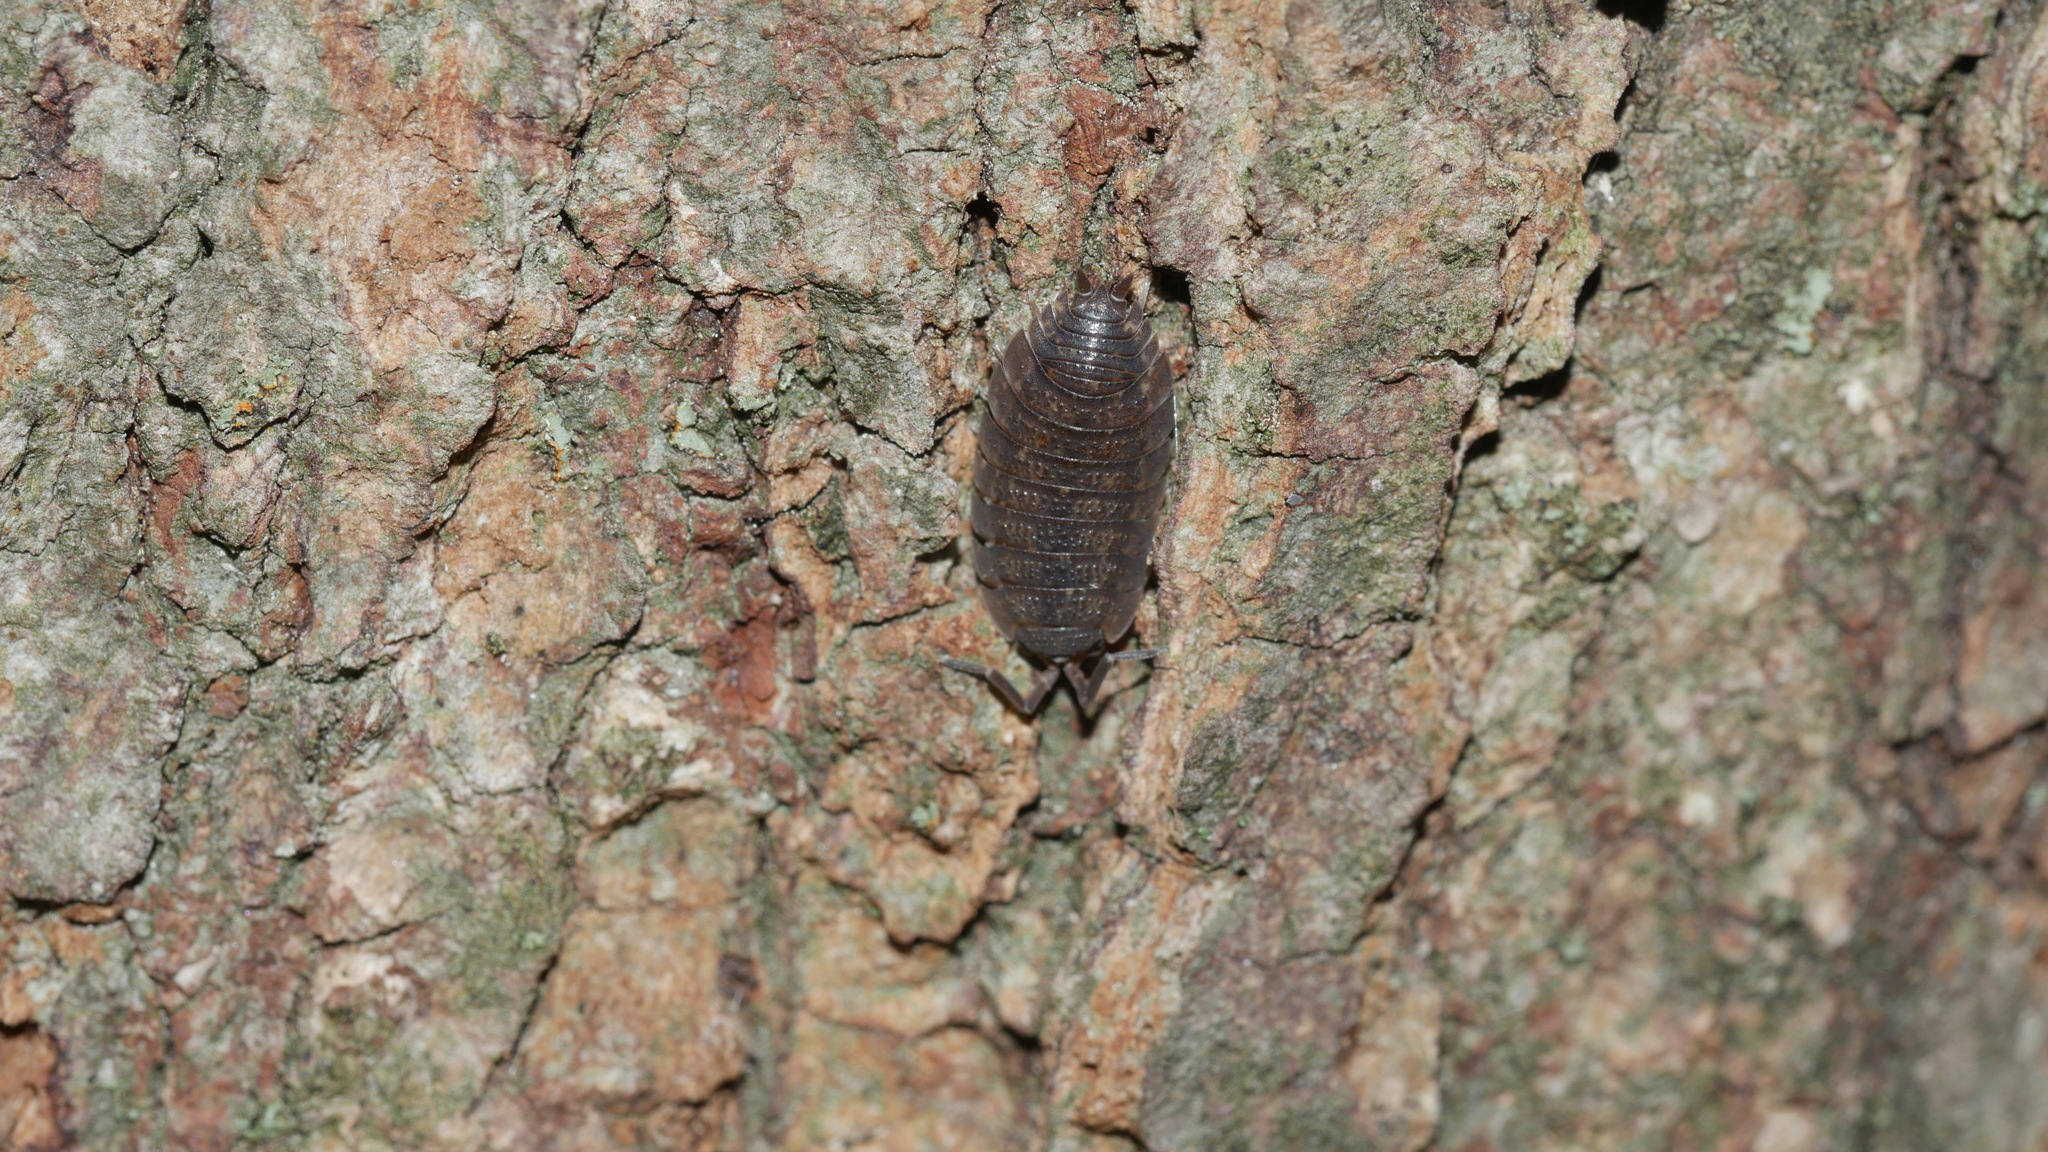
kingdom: Animalia
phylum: Arthropoda
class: Malacostraca
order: Isopoda
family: Porcellionidae
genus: Porcellio
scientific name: Porcellio scaber
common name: Common rough woodlouse
